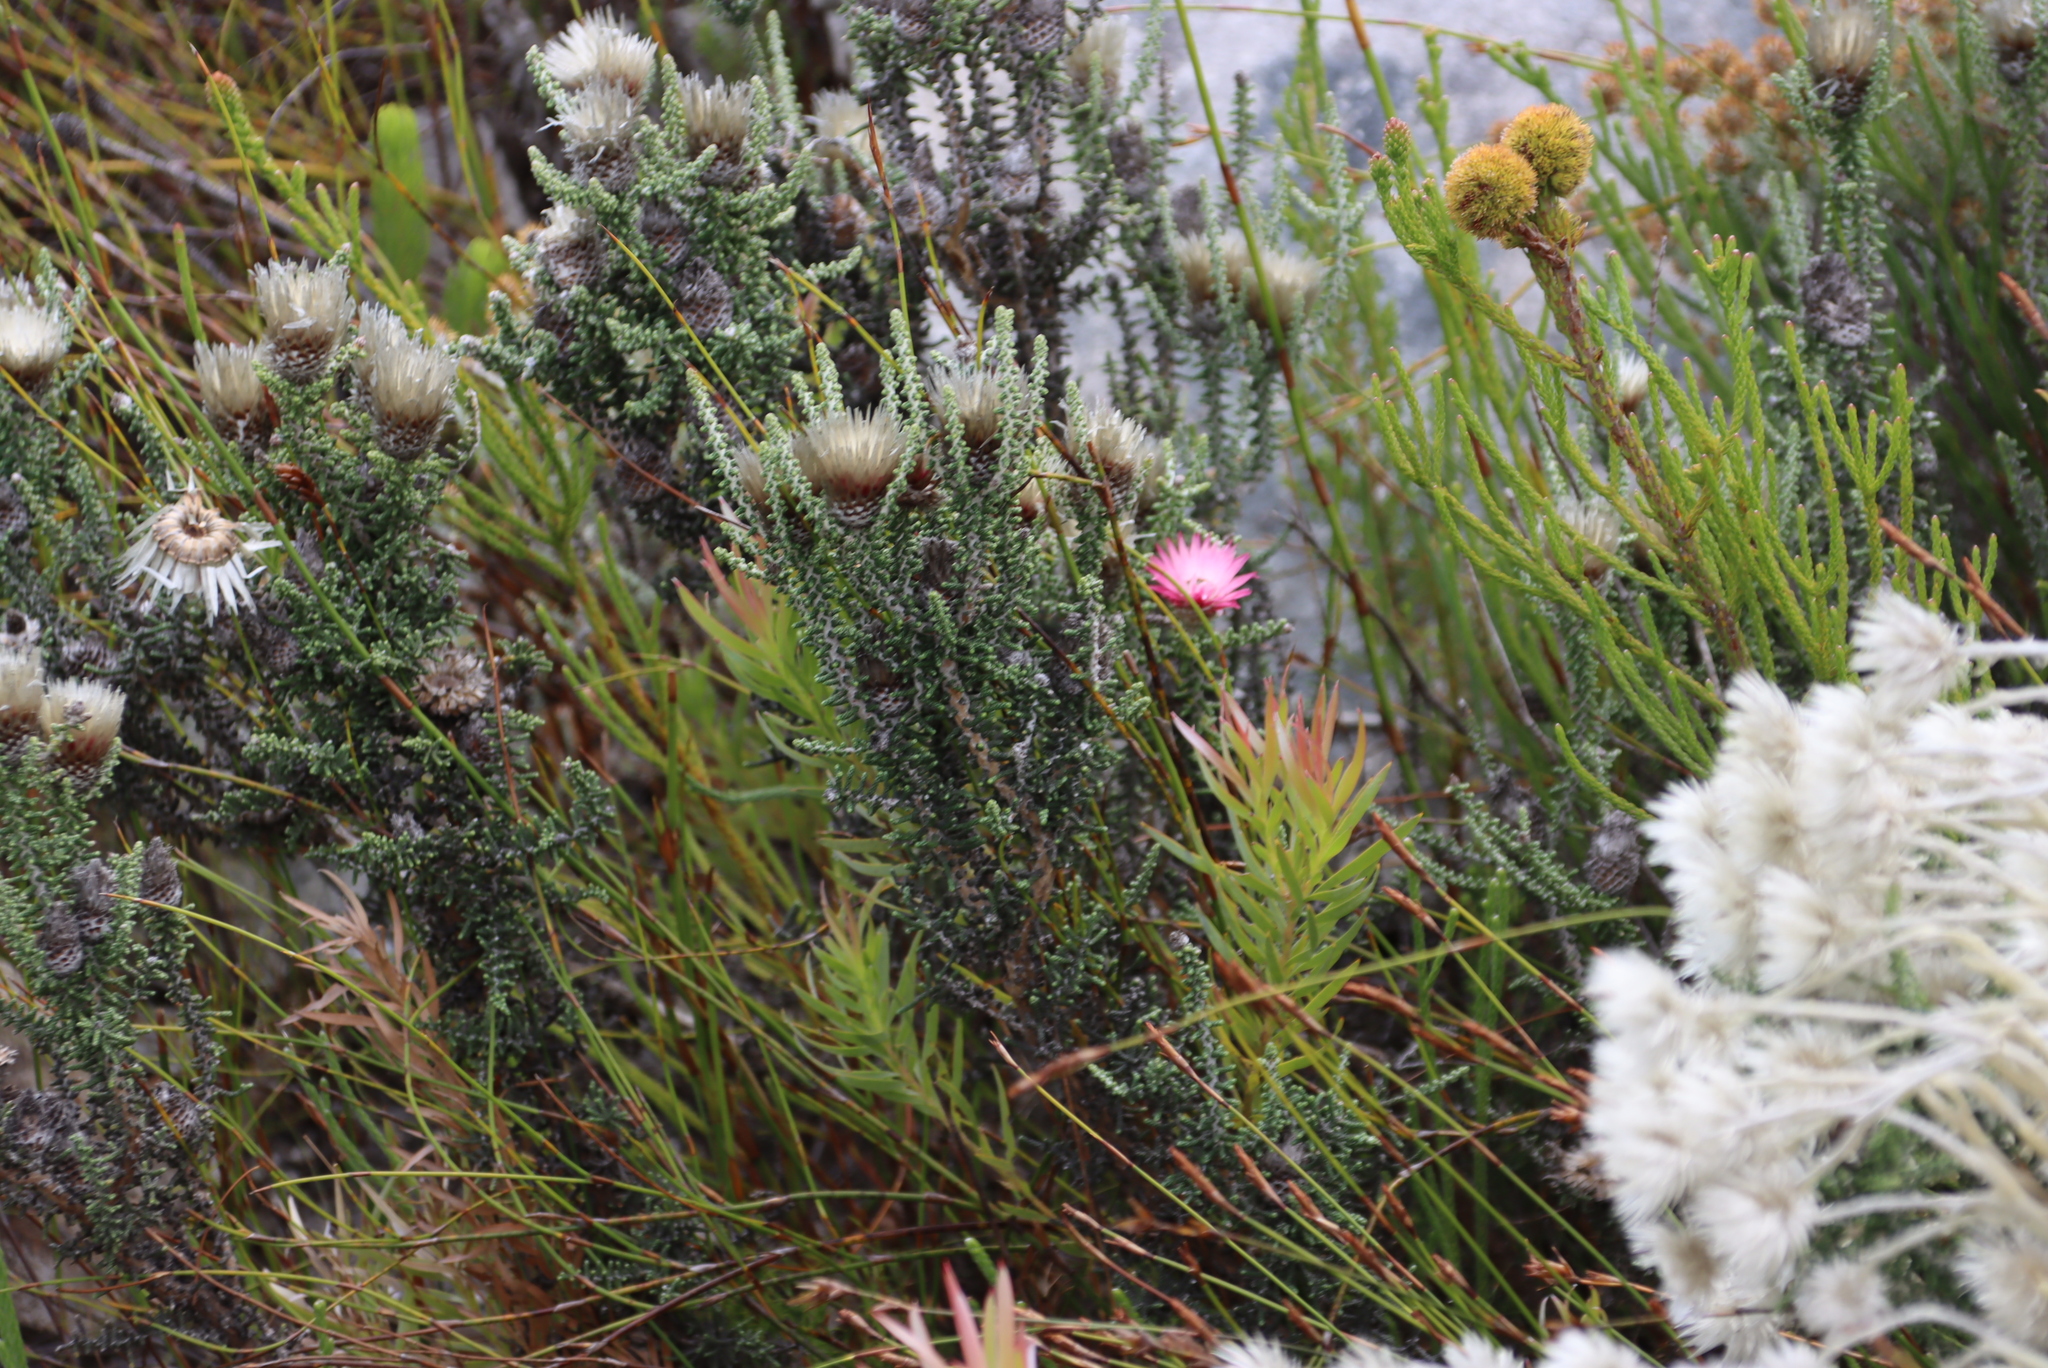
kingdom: Plantae
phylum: Tracheophyta
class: Magnoliopsida
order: Asterales
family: Asteraceae
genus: Phaenocoma
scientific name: Phaenocoma prolifera
